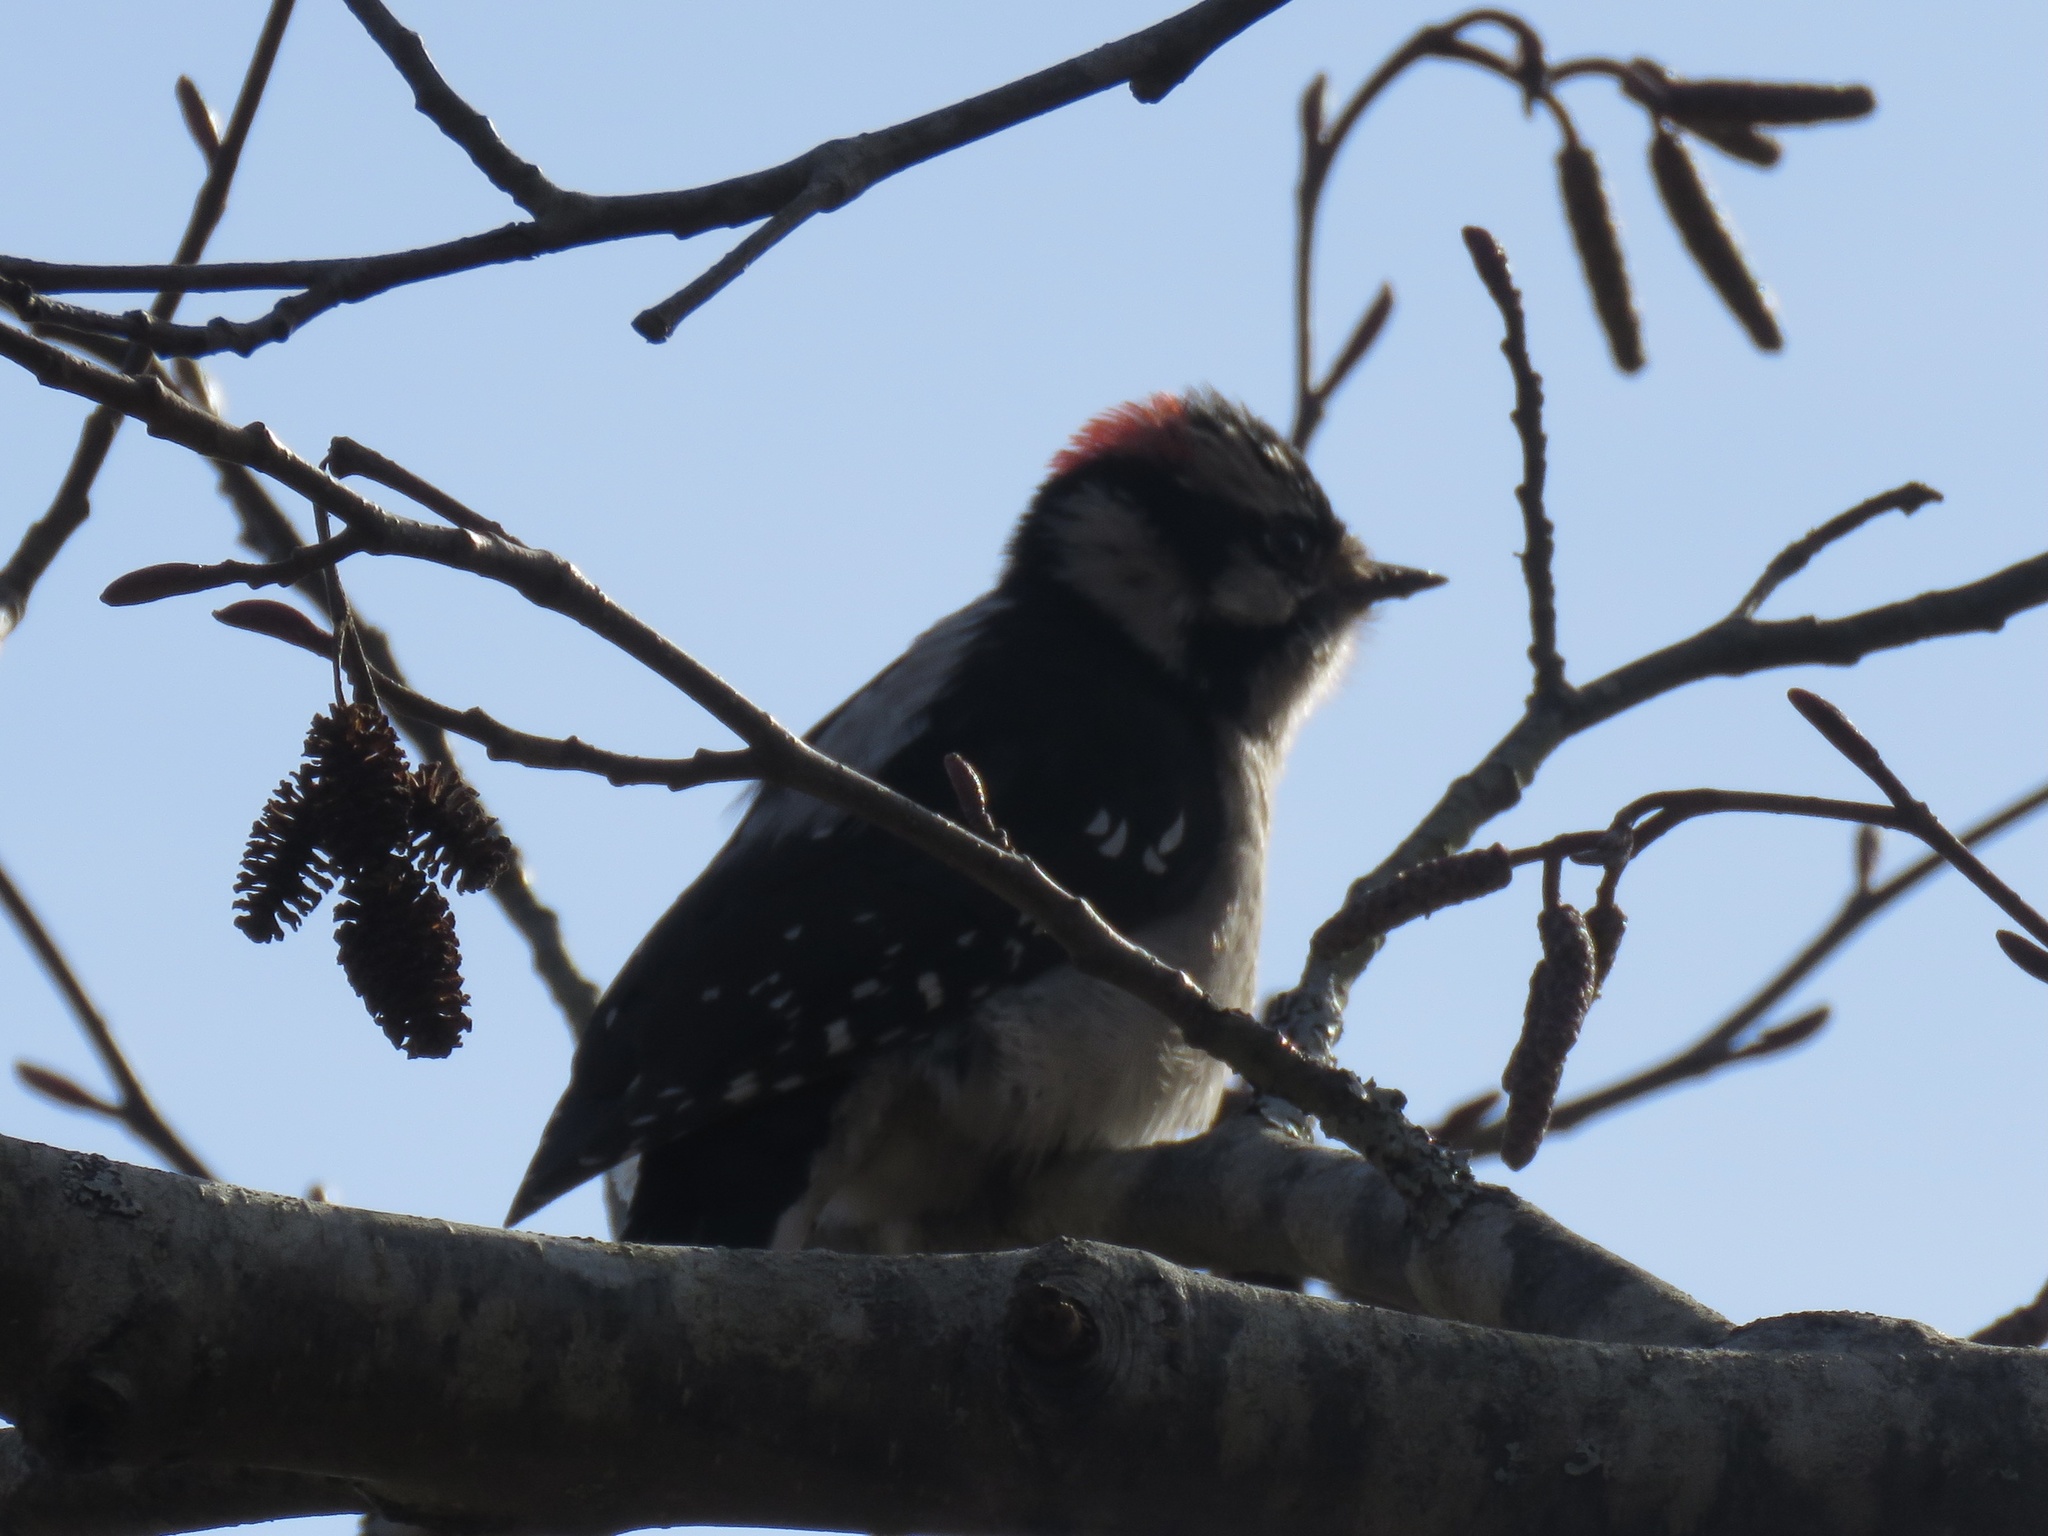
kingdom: Animalia
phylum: Chordata
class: Aves
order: Piciformes
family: Picidae
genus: Dryobates
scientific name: Dryobates pubescens
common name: Downy woodpecker
